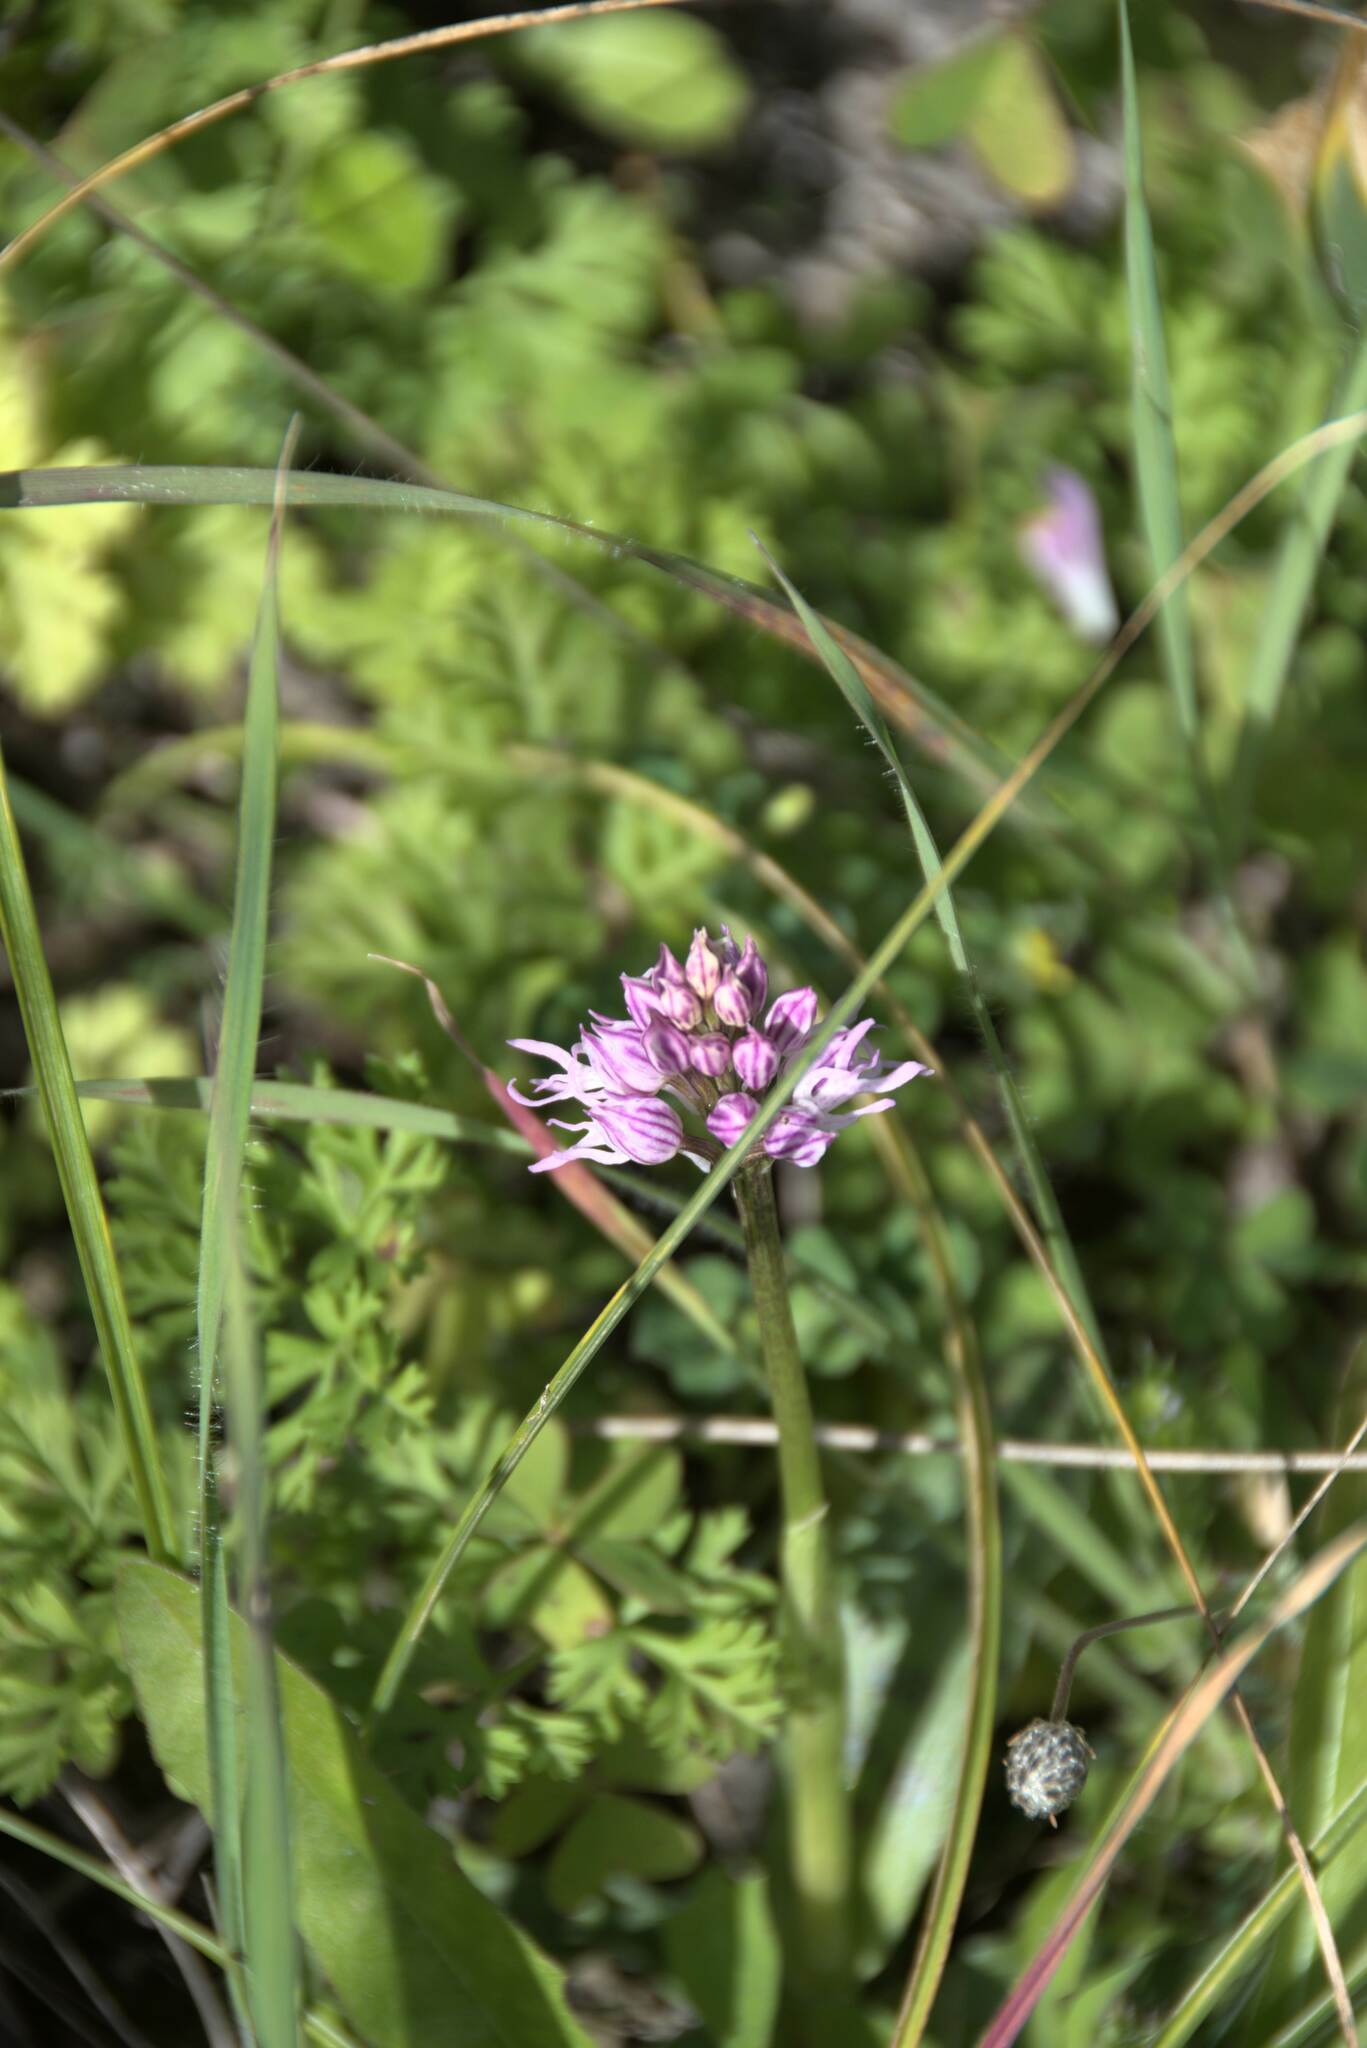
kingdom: Plantae
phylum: Tracheophyta
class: Liliopsida
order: Asparagales
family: Orchidaceae
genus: Orchis
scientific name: Orchis italica
